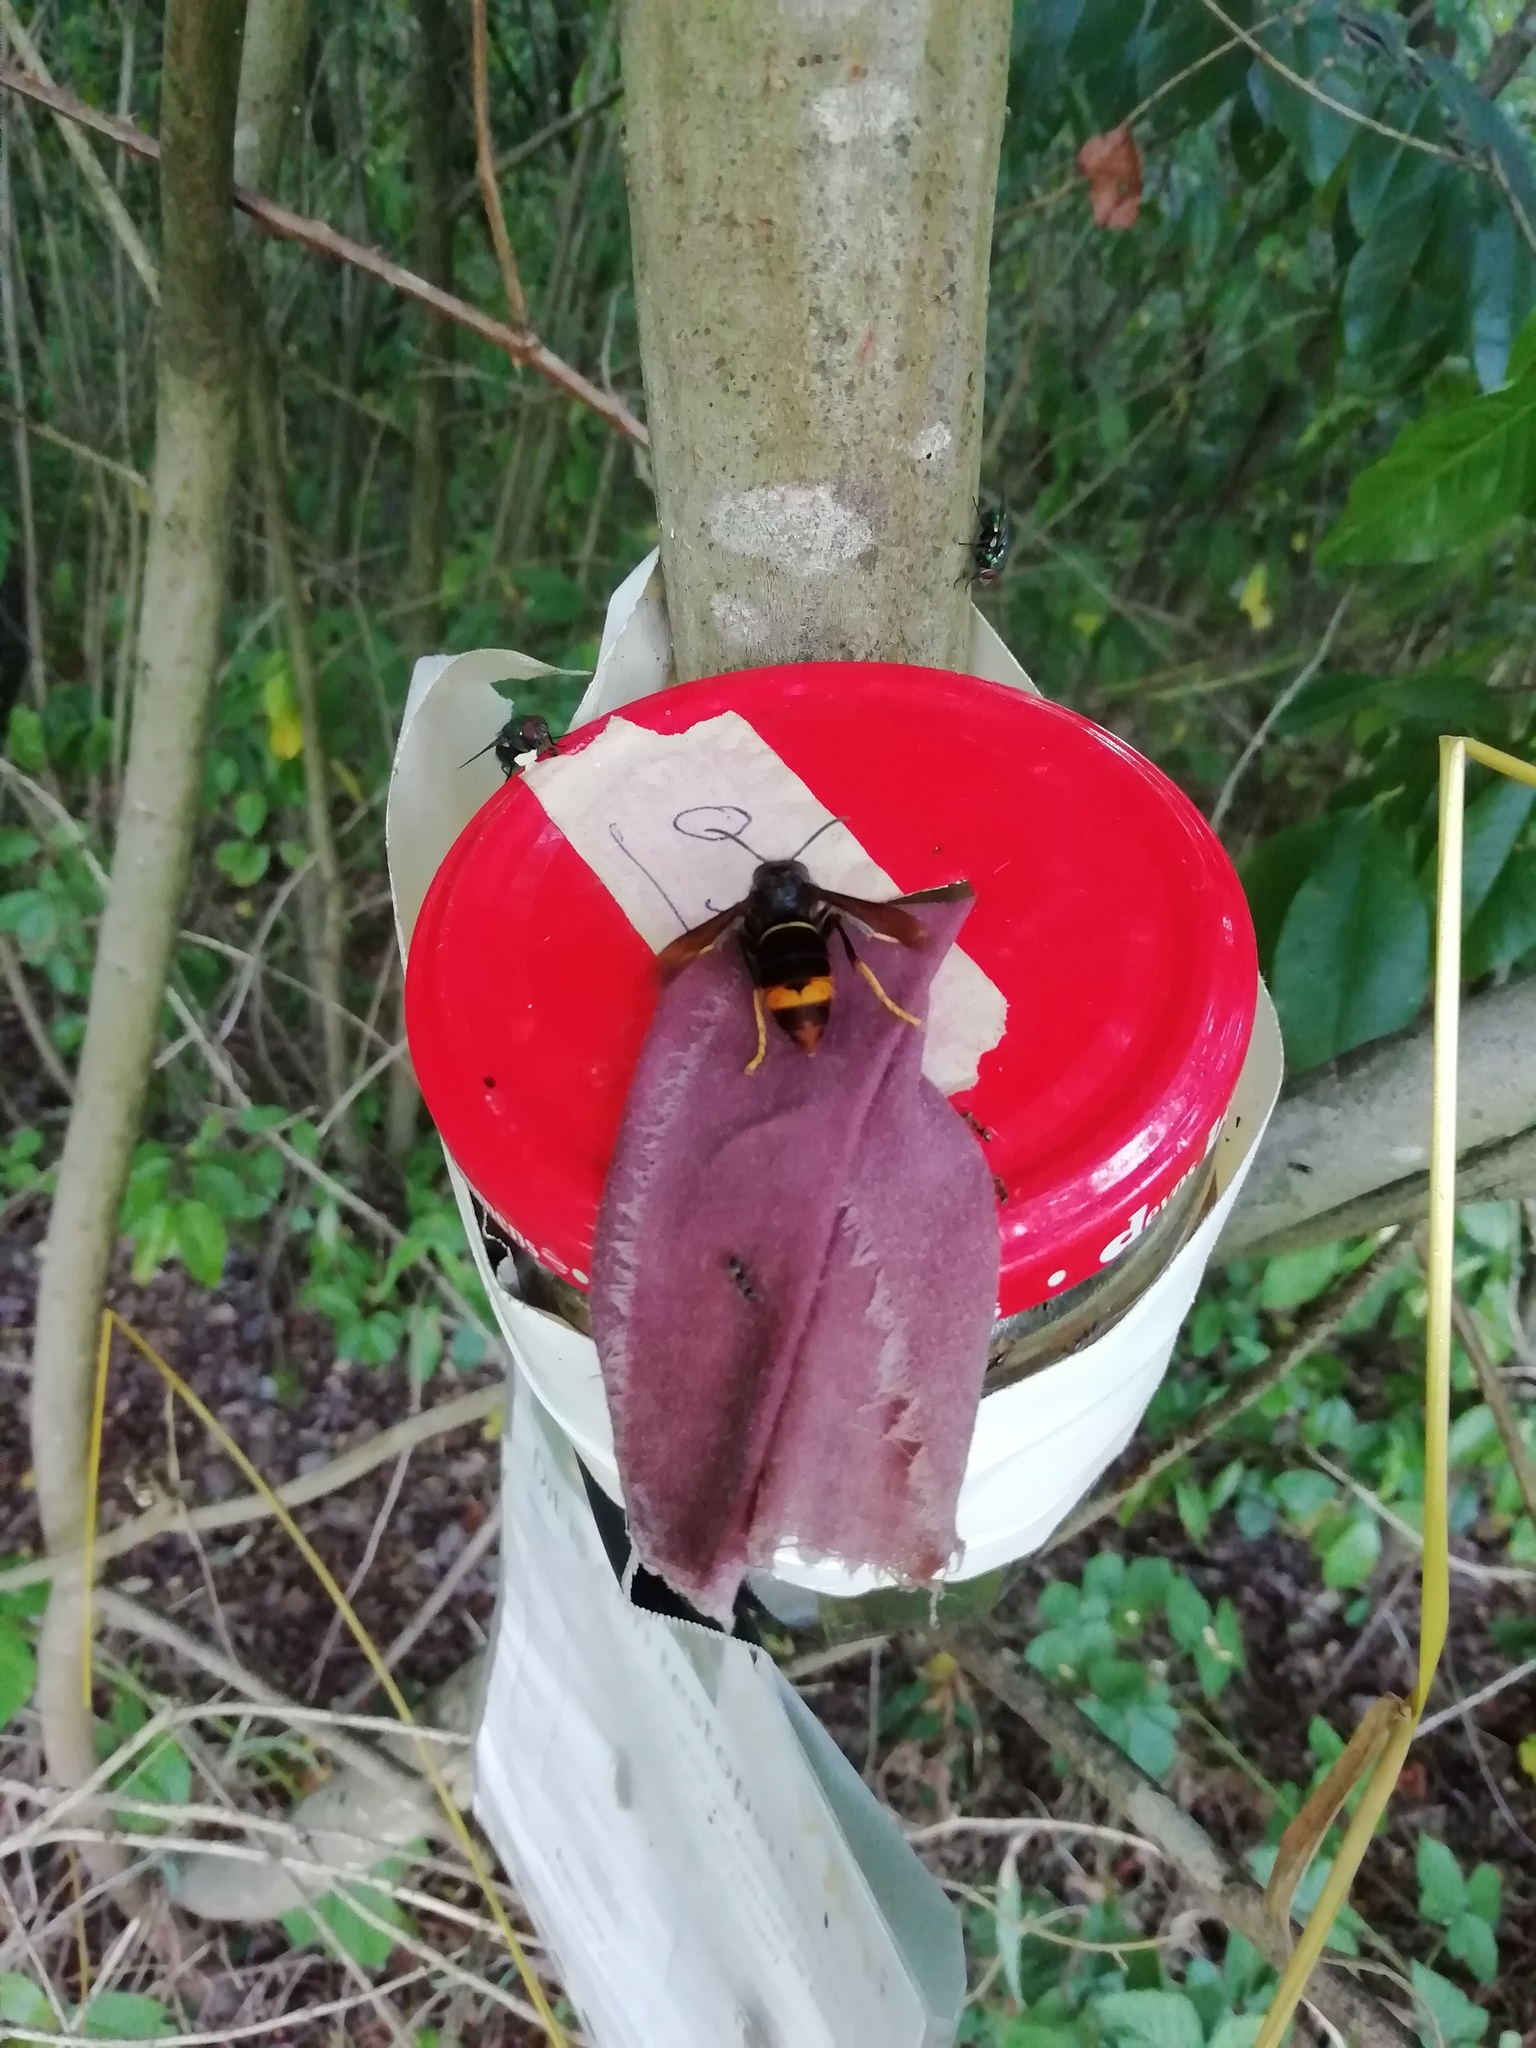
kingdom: Animalia
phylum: Arthropoda
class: Insecta
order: Hymenoptera
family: Vespidae
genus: Vespa
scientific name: Vespa velutina
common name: Asian hornet
